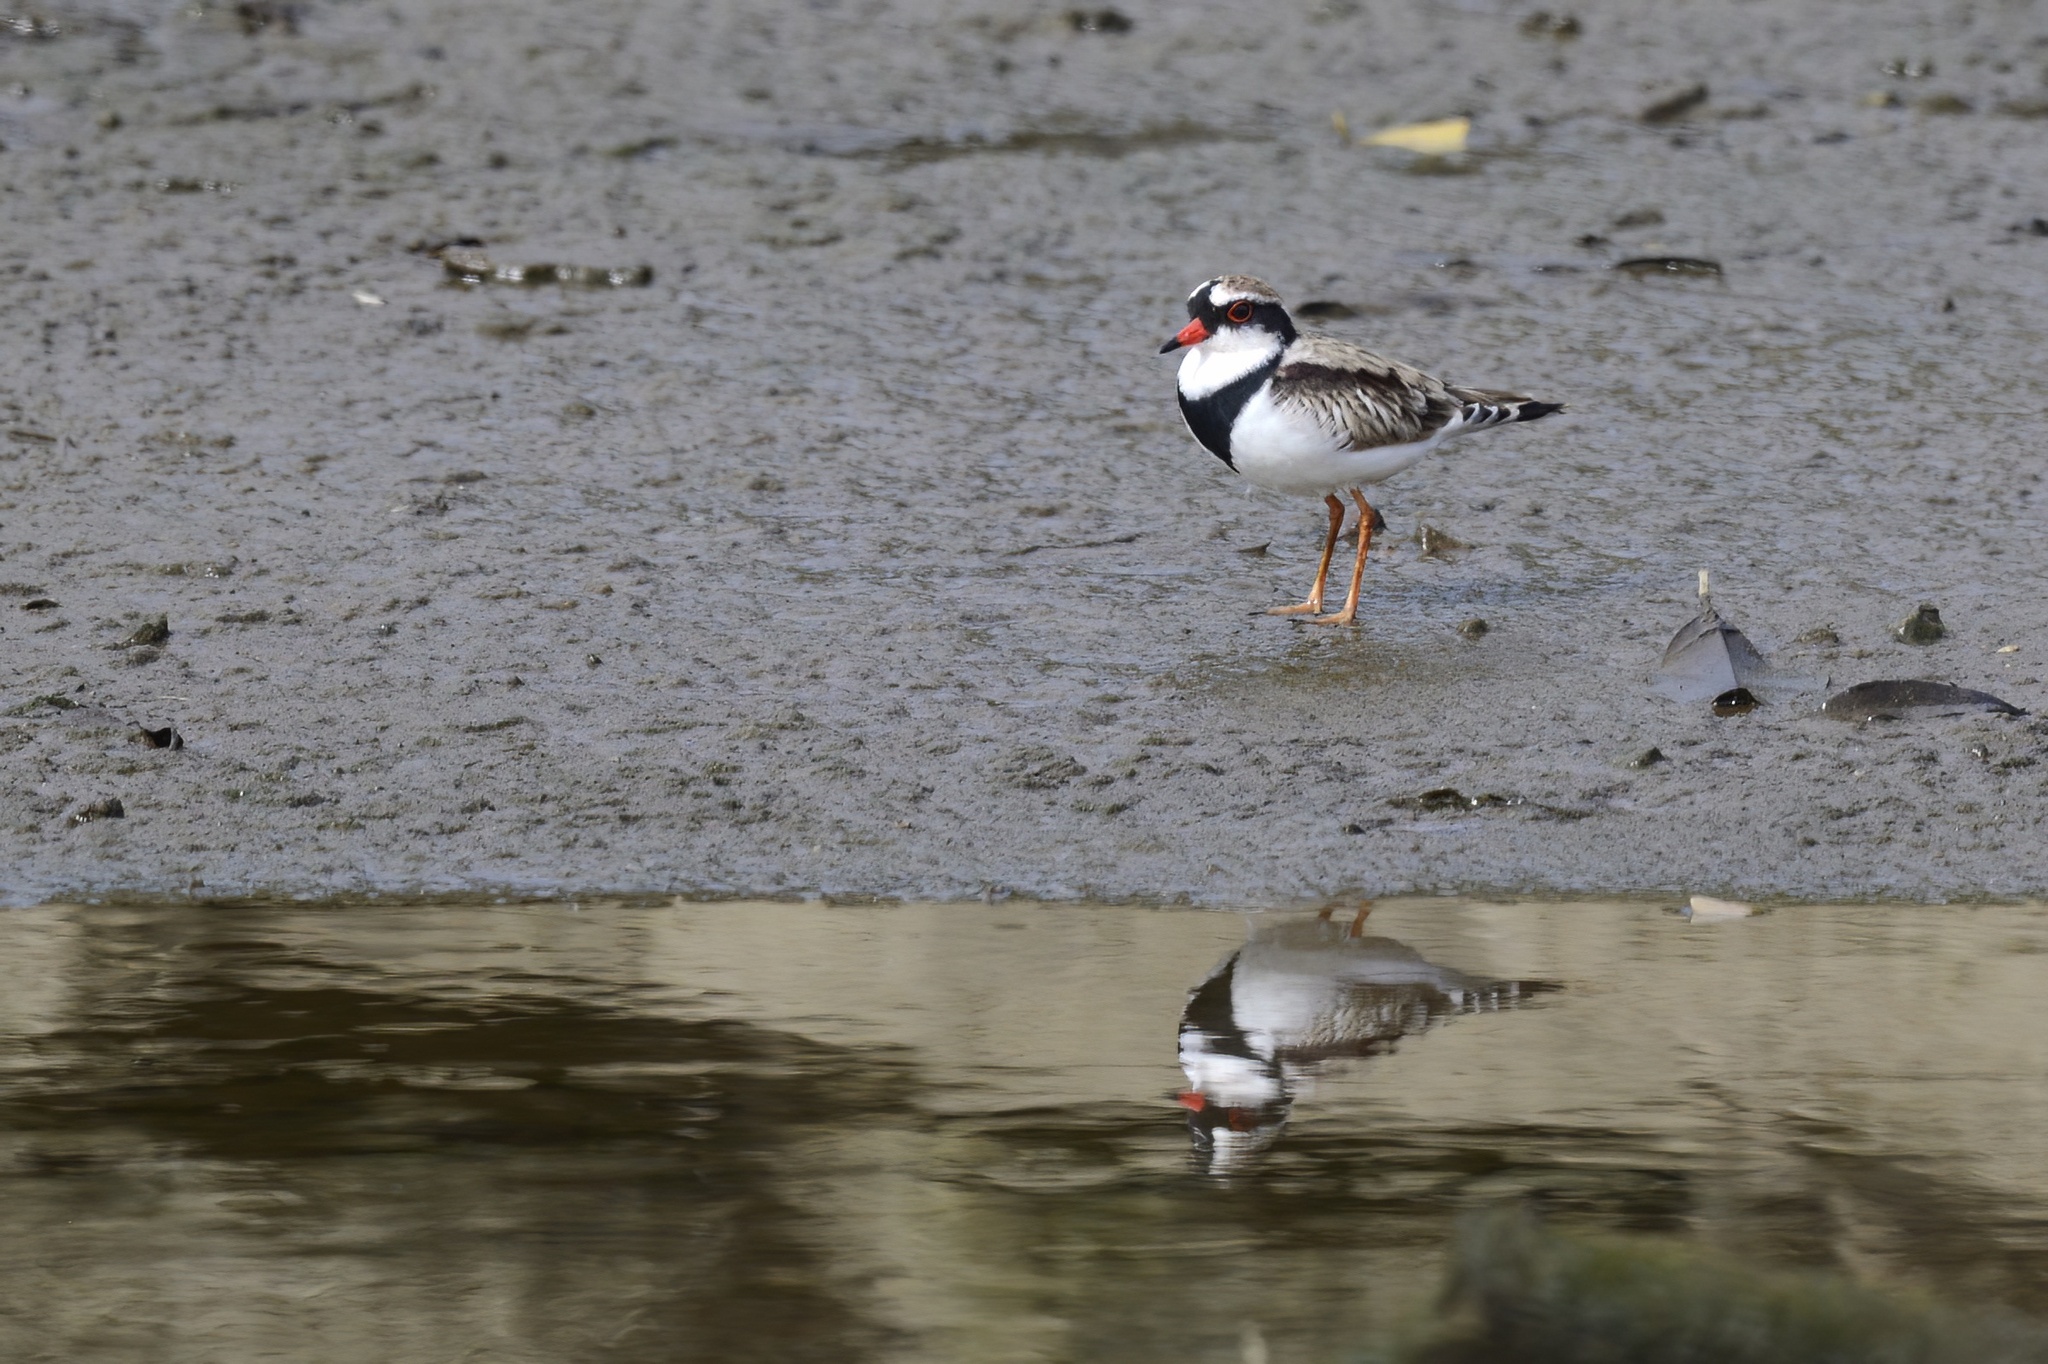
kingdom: Animalia
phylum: Chordata
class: Aves
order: Charadriiformes
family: Charadriidae
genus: Elseyornis
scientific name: Elseyornis melanops
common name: Black-fronted dotterel
